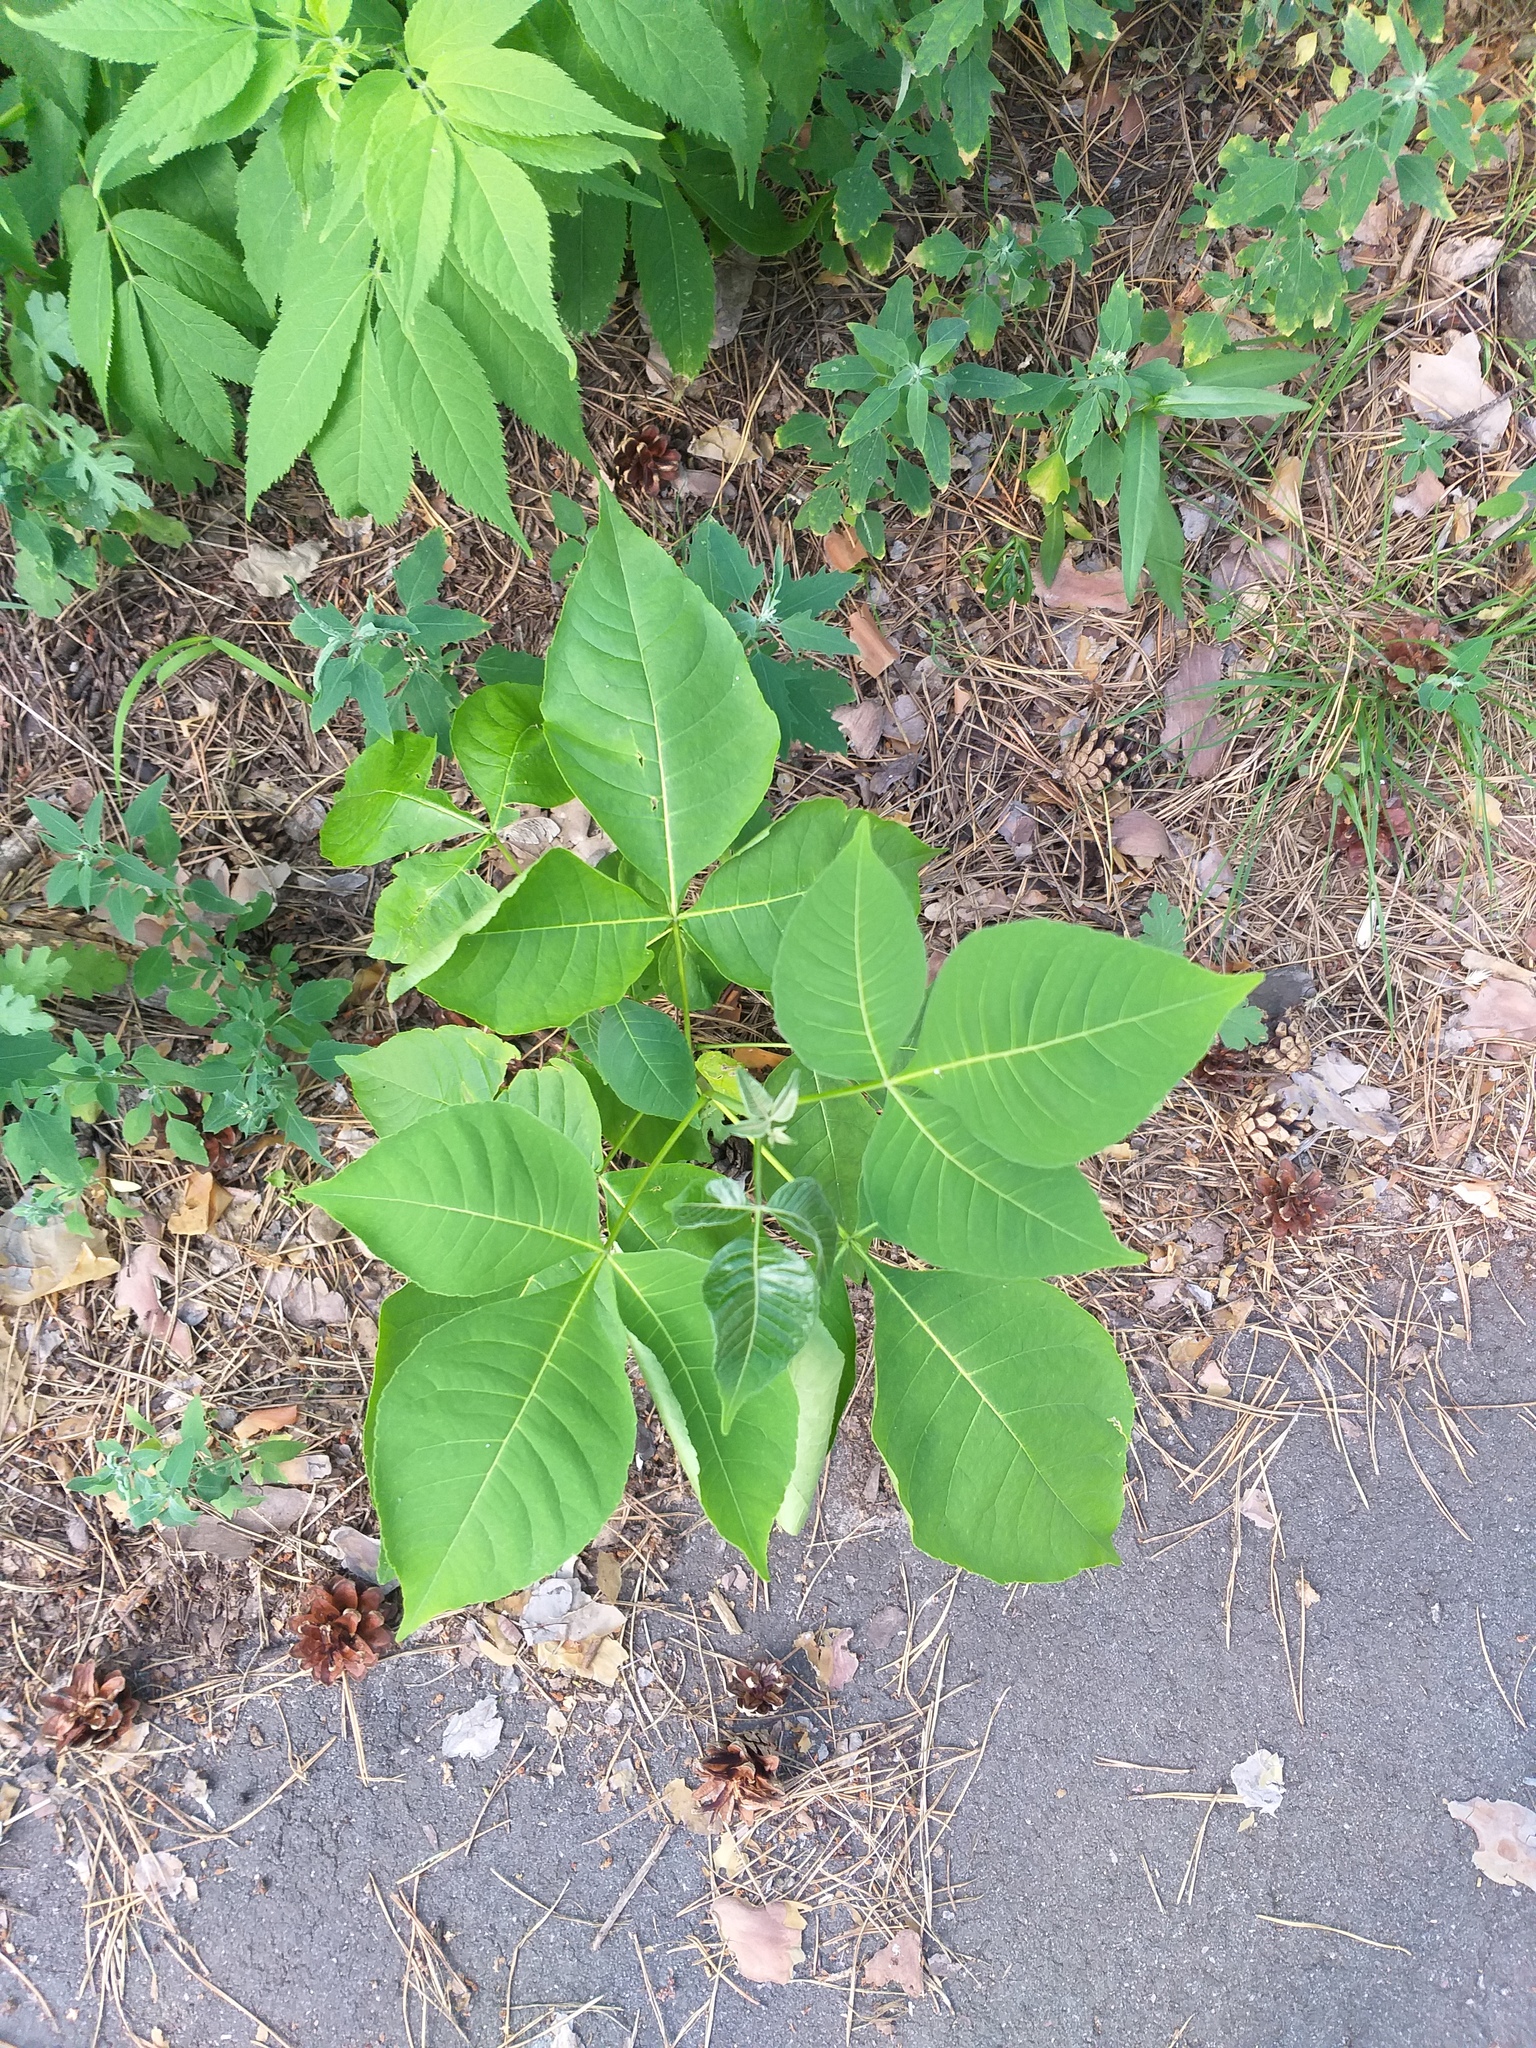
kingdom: Plantae
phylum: Tracheophyta
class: Magnoliopsida
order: Sapindales
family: Rutaceae
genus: Ptelea
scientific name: Ptelea trifoliata
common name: Common hop-tree
